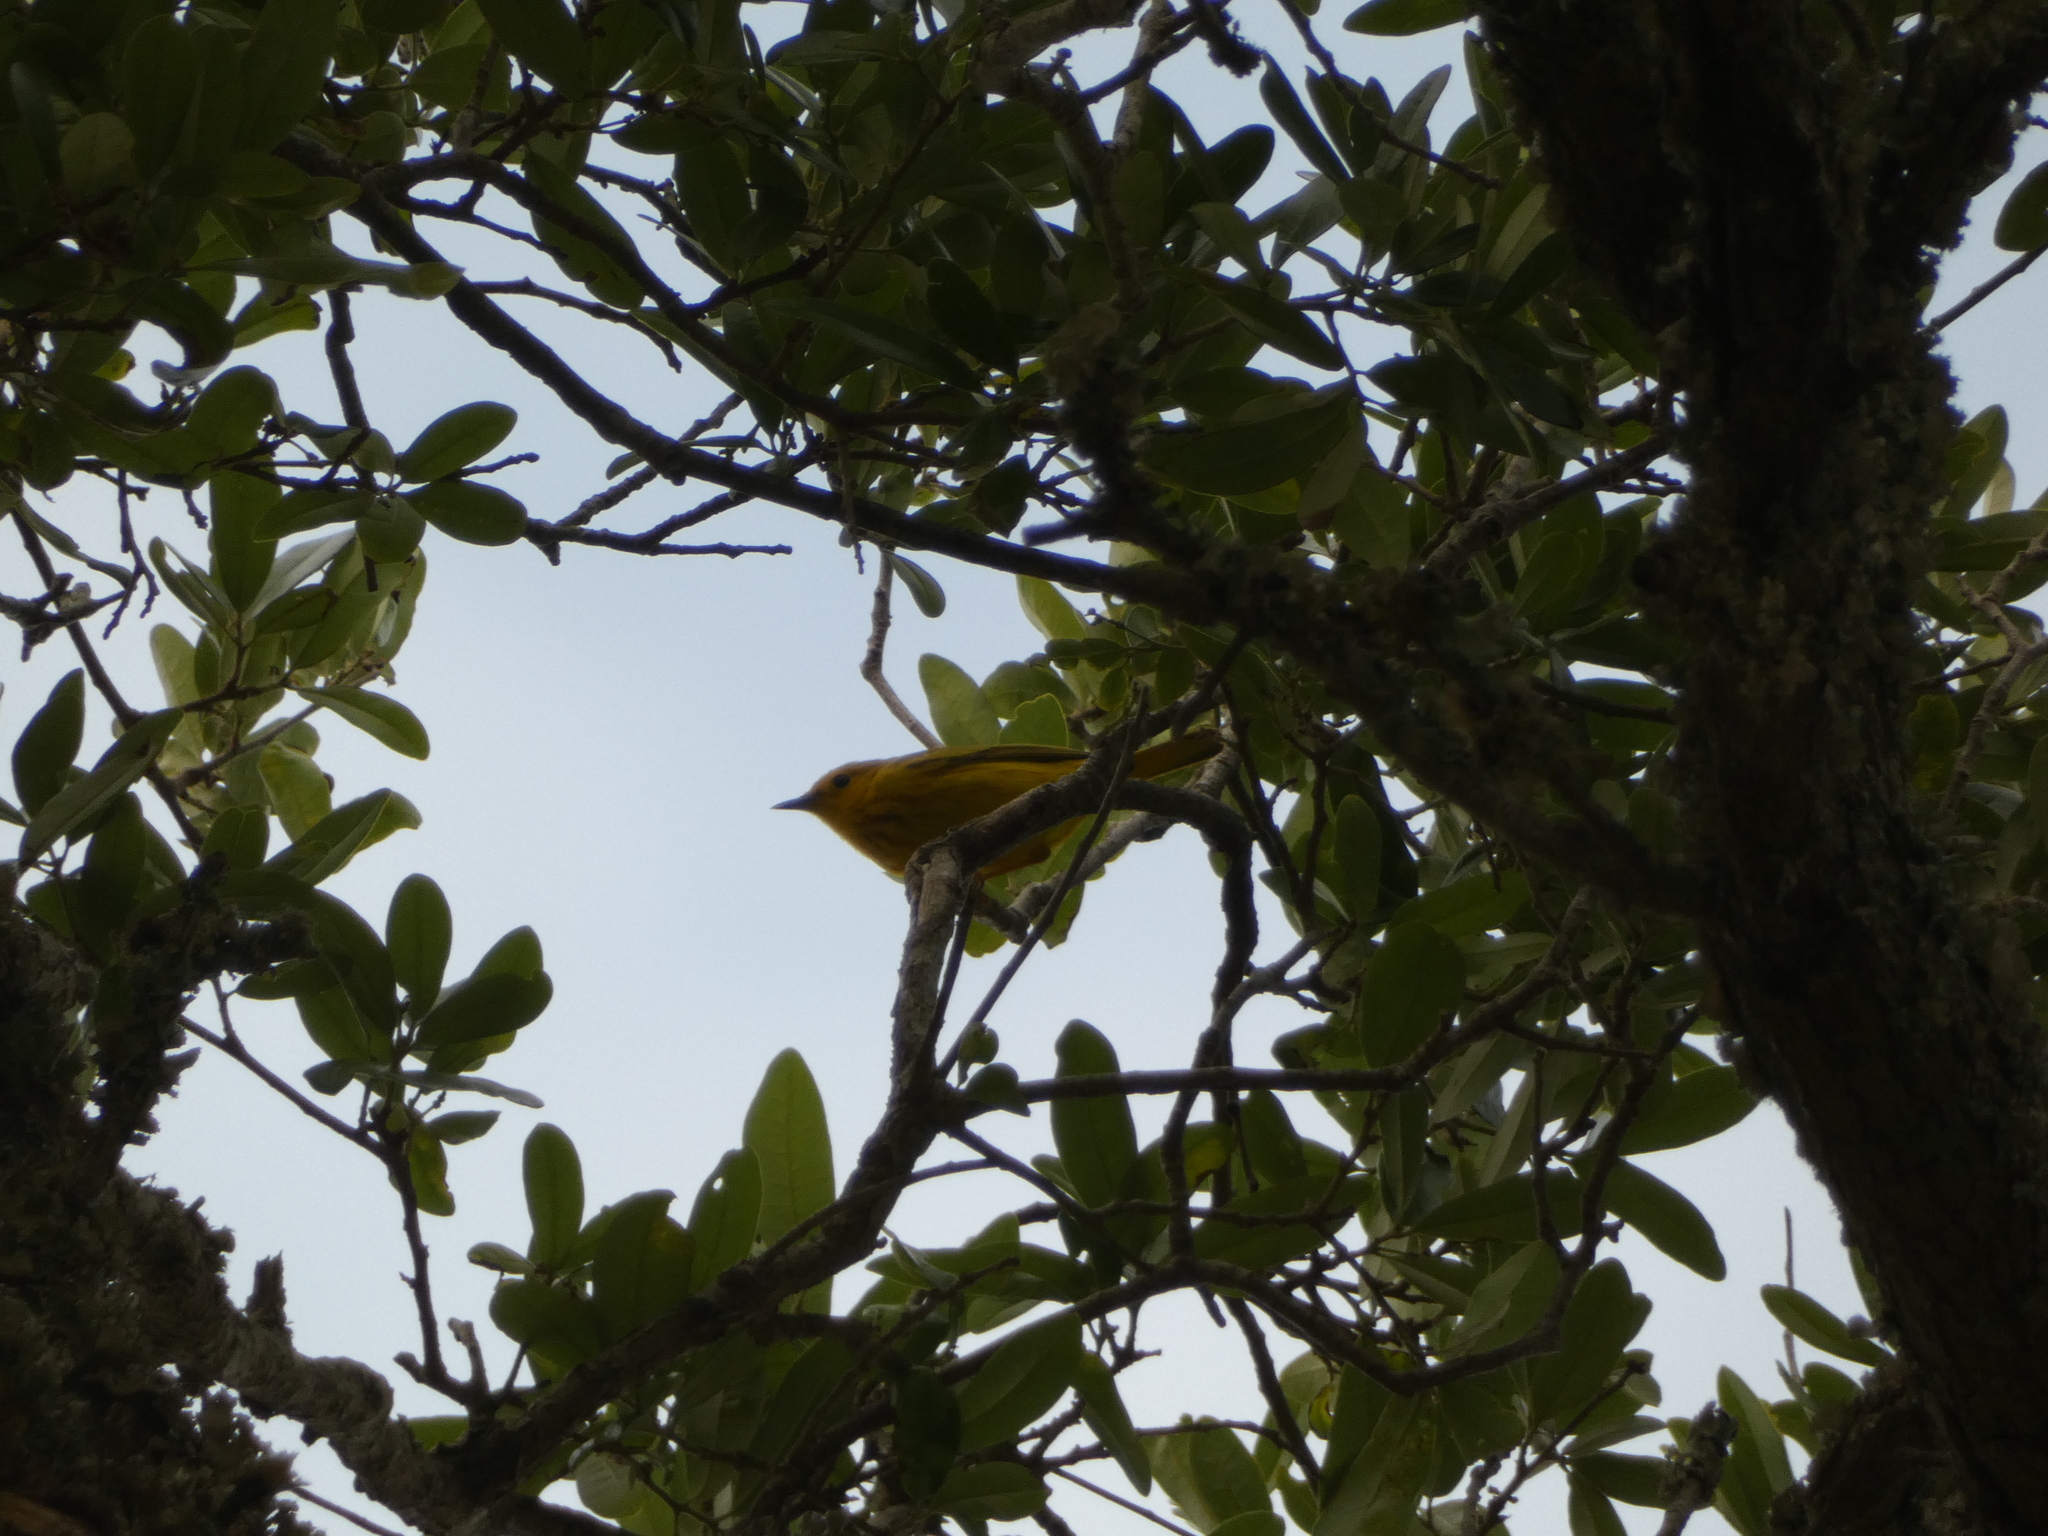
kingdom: Animalia
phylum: Chordata
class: Aves
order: Passeriformes
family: Parulidae
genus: Setophaga
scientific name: Setophaga petechia
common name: Yellow warbler
